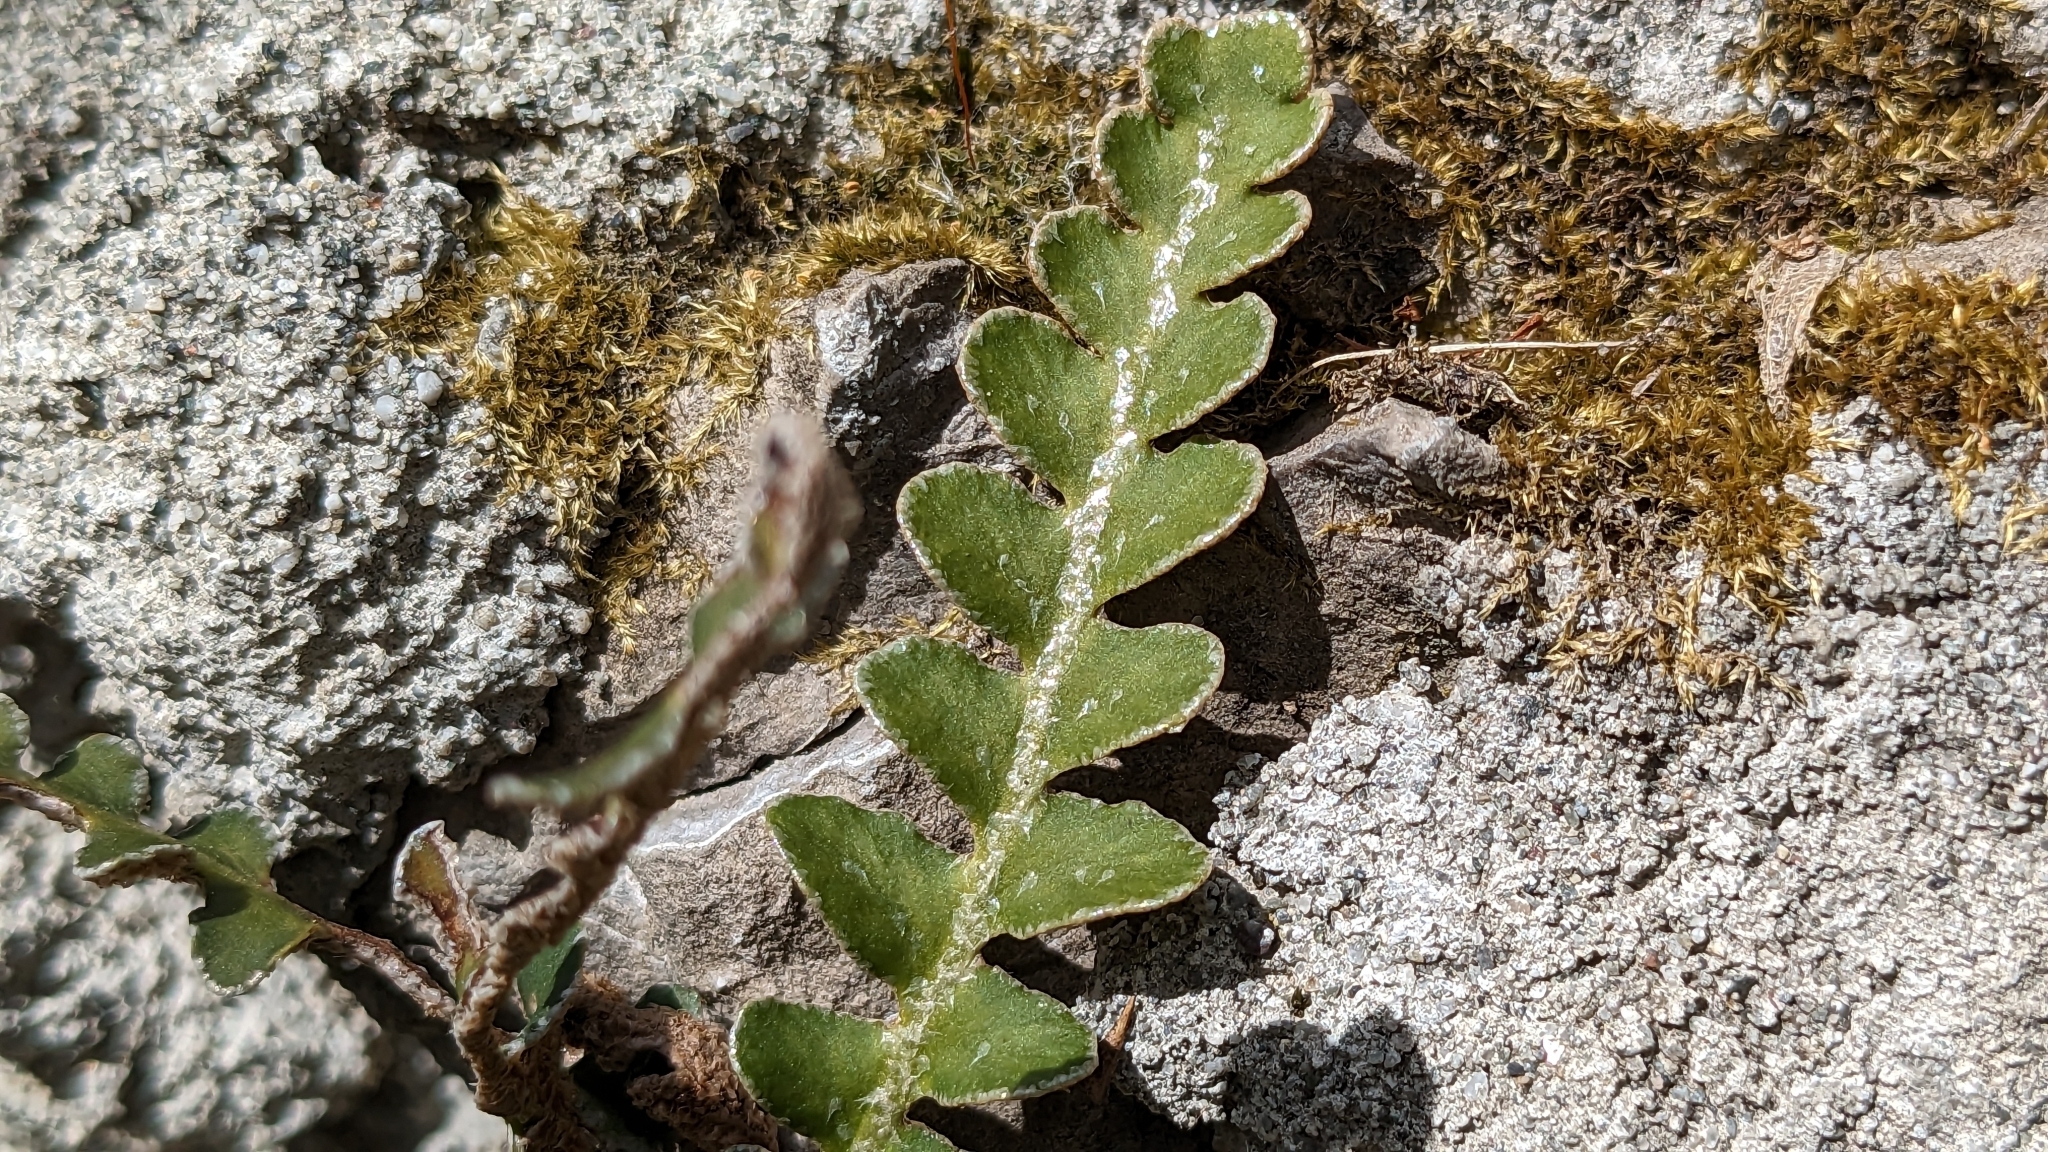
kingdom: Plantae
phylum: Tracheophyta
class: Polypodiopsida
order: Polypodiales
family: Aspleniaceae
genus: Asplenium
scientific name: Asplenium ceterach
